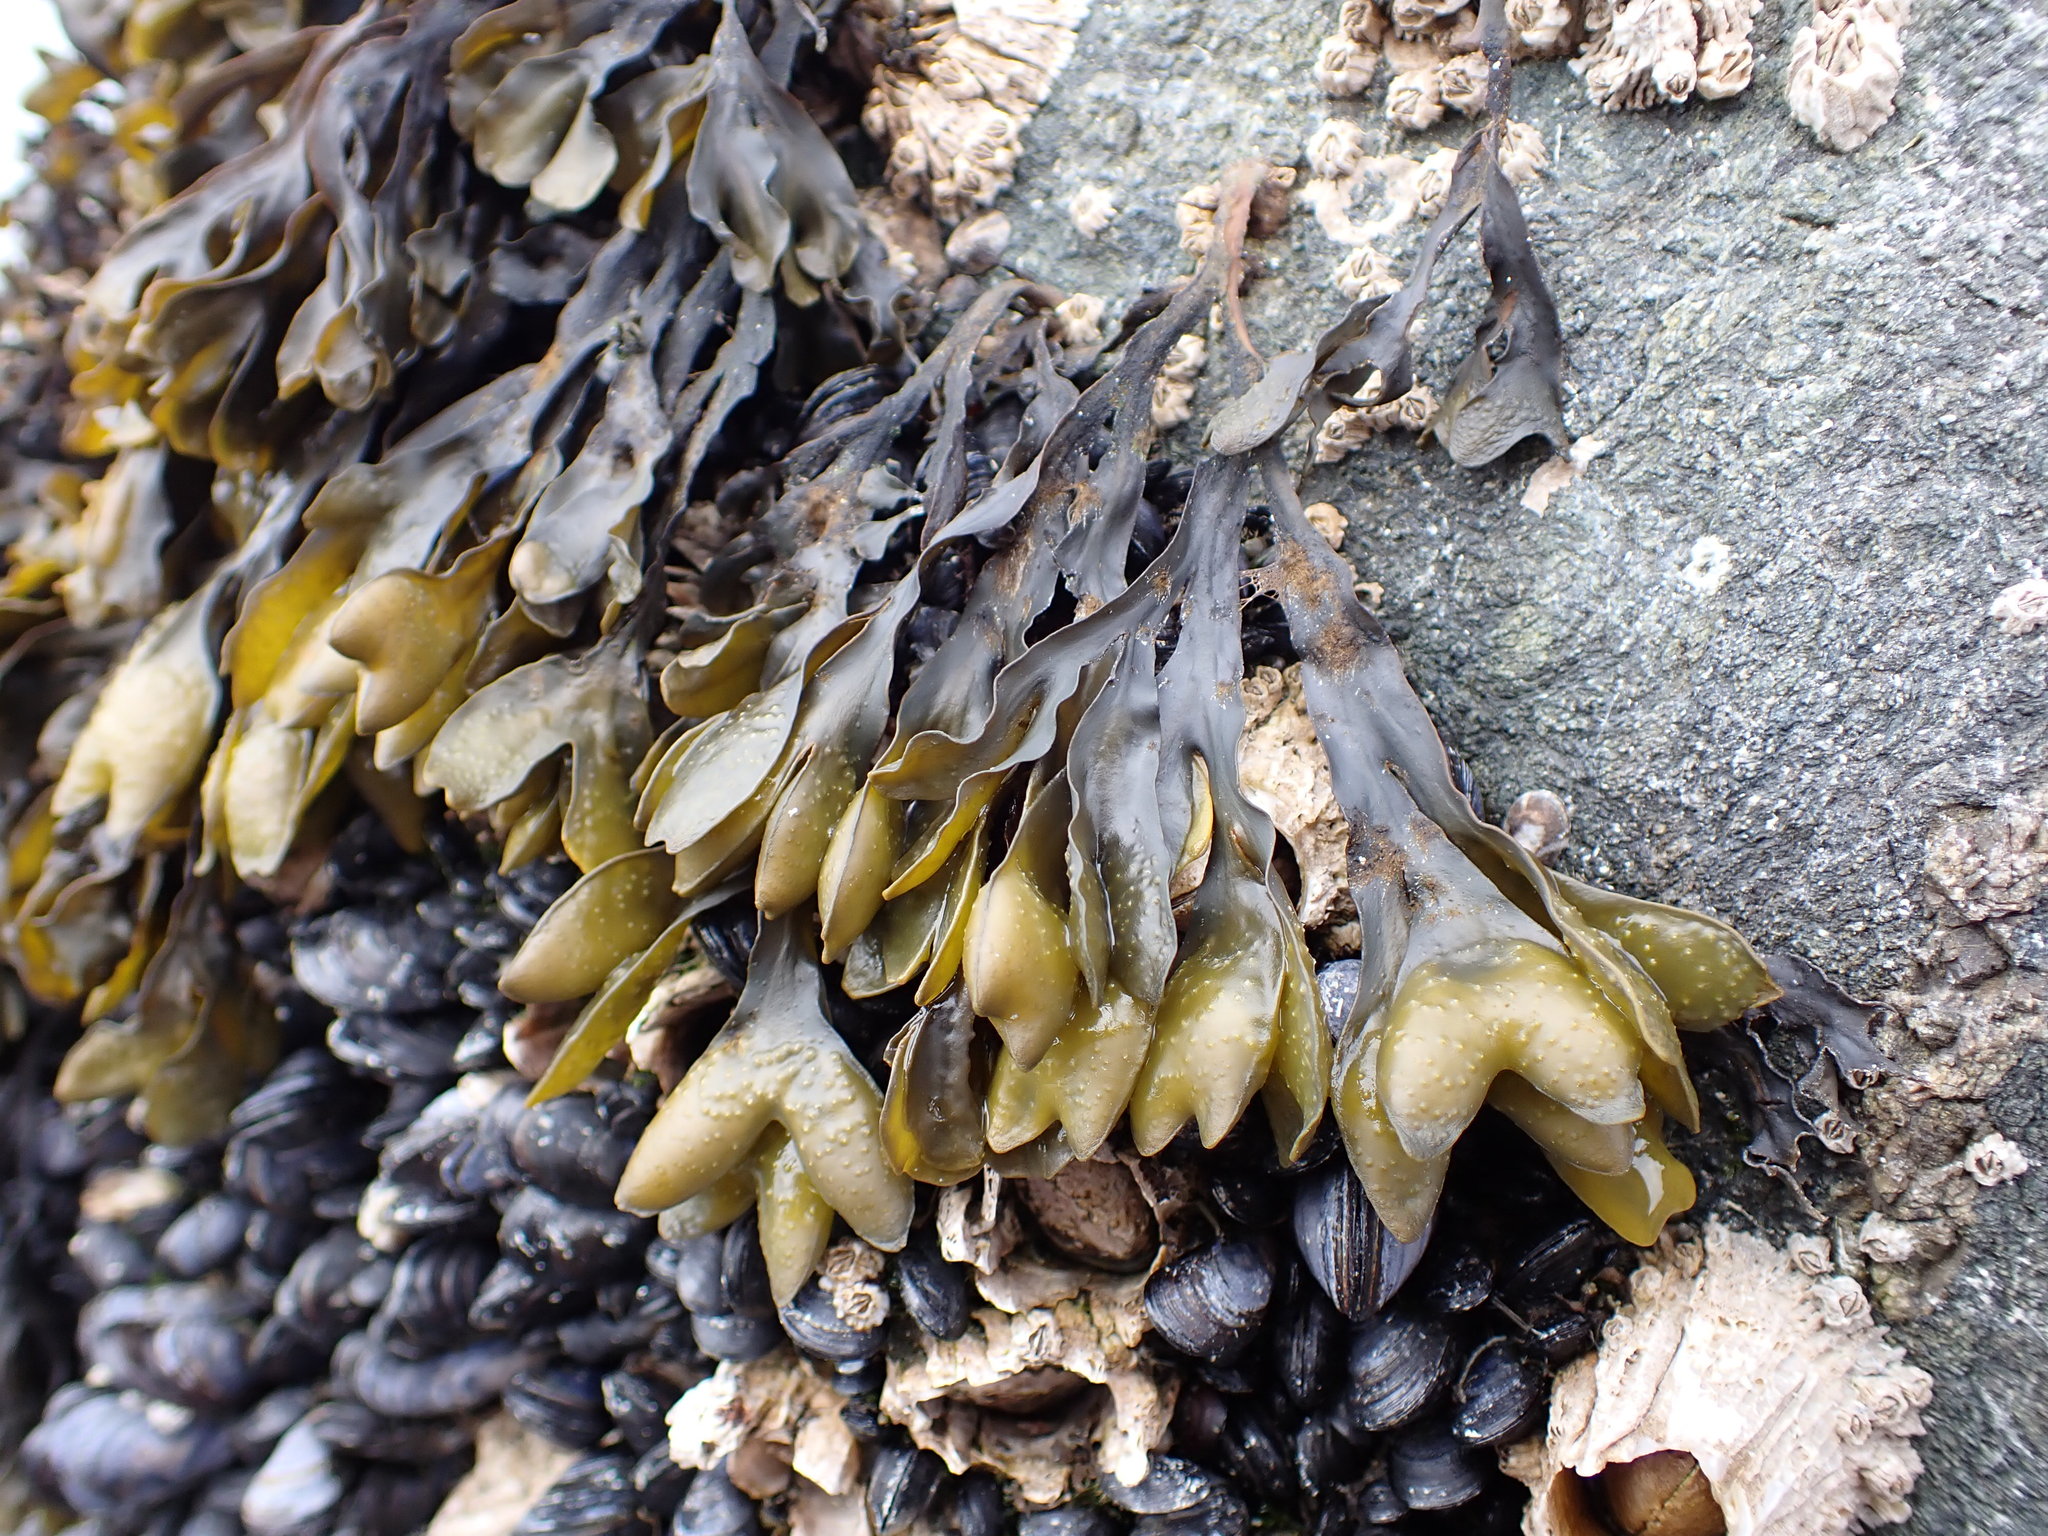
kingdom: Chromista
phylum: Ochrophyta
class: Phaeophyceae
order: Fucales
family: Fucaceae
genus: Fucus
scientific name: Fucus distichus
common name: Rockweed
